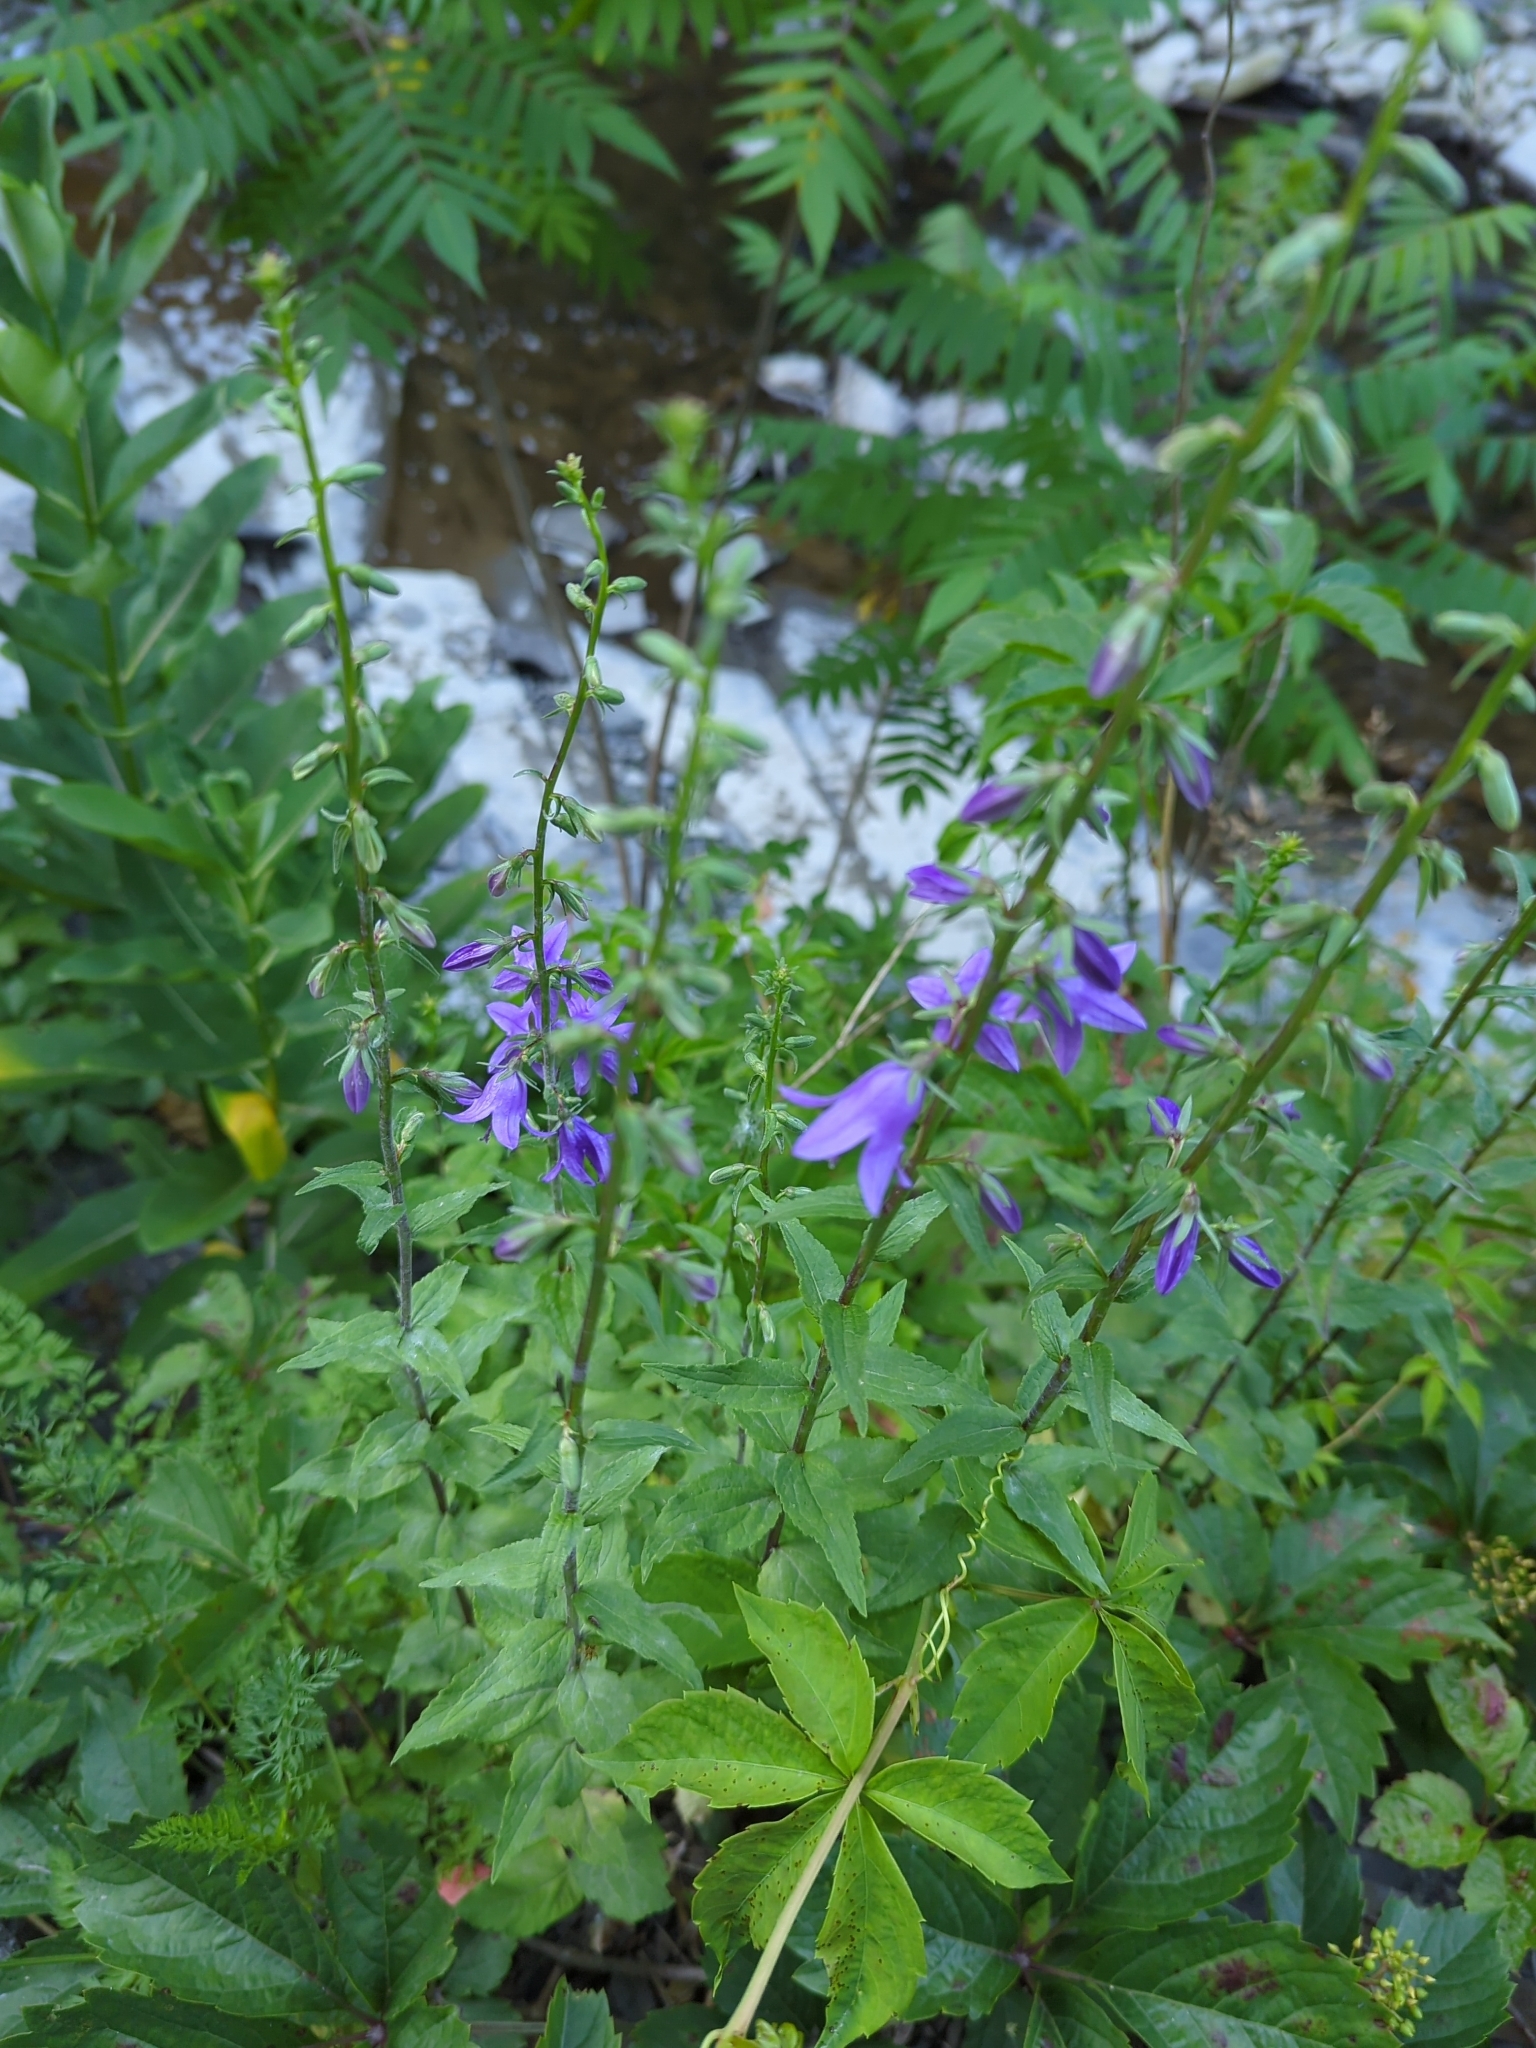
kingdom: Plantae
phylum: Tracheophyta
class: Magnoliopsida
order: Asterales
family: Campanulaceae
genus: Campanula
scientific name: Campanula rapunculoides
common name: Creeping bellflower
